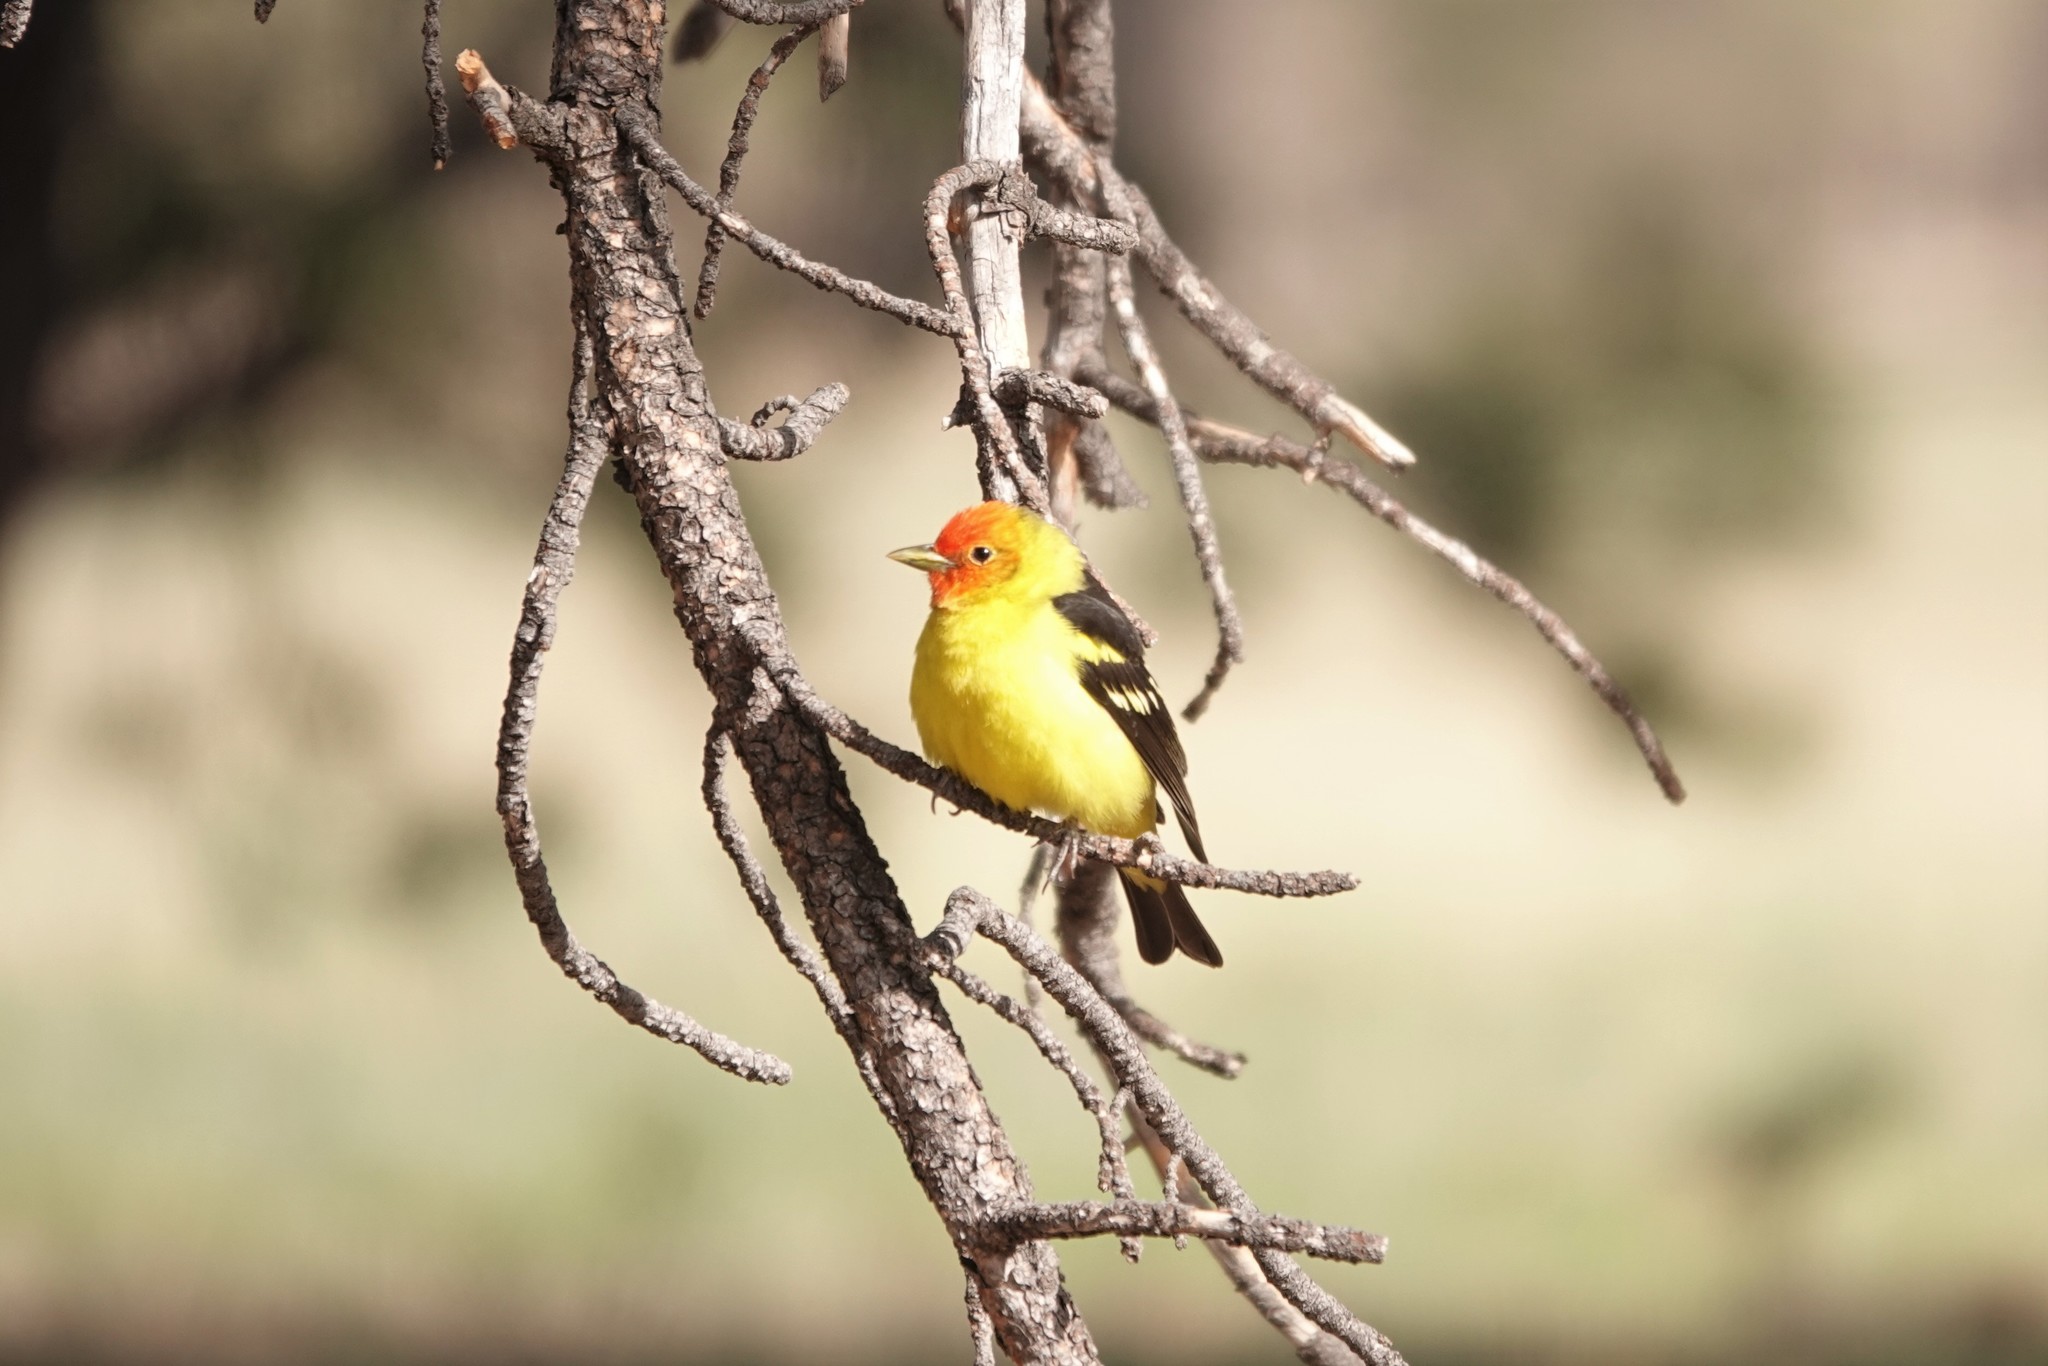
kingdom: Animalia
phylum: Chordata
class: Aves
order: Passeriformes
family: Cardinalidae
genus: Piranga
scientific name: Piranga ludoviciana
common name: Western tanager
